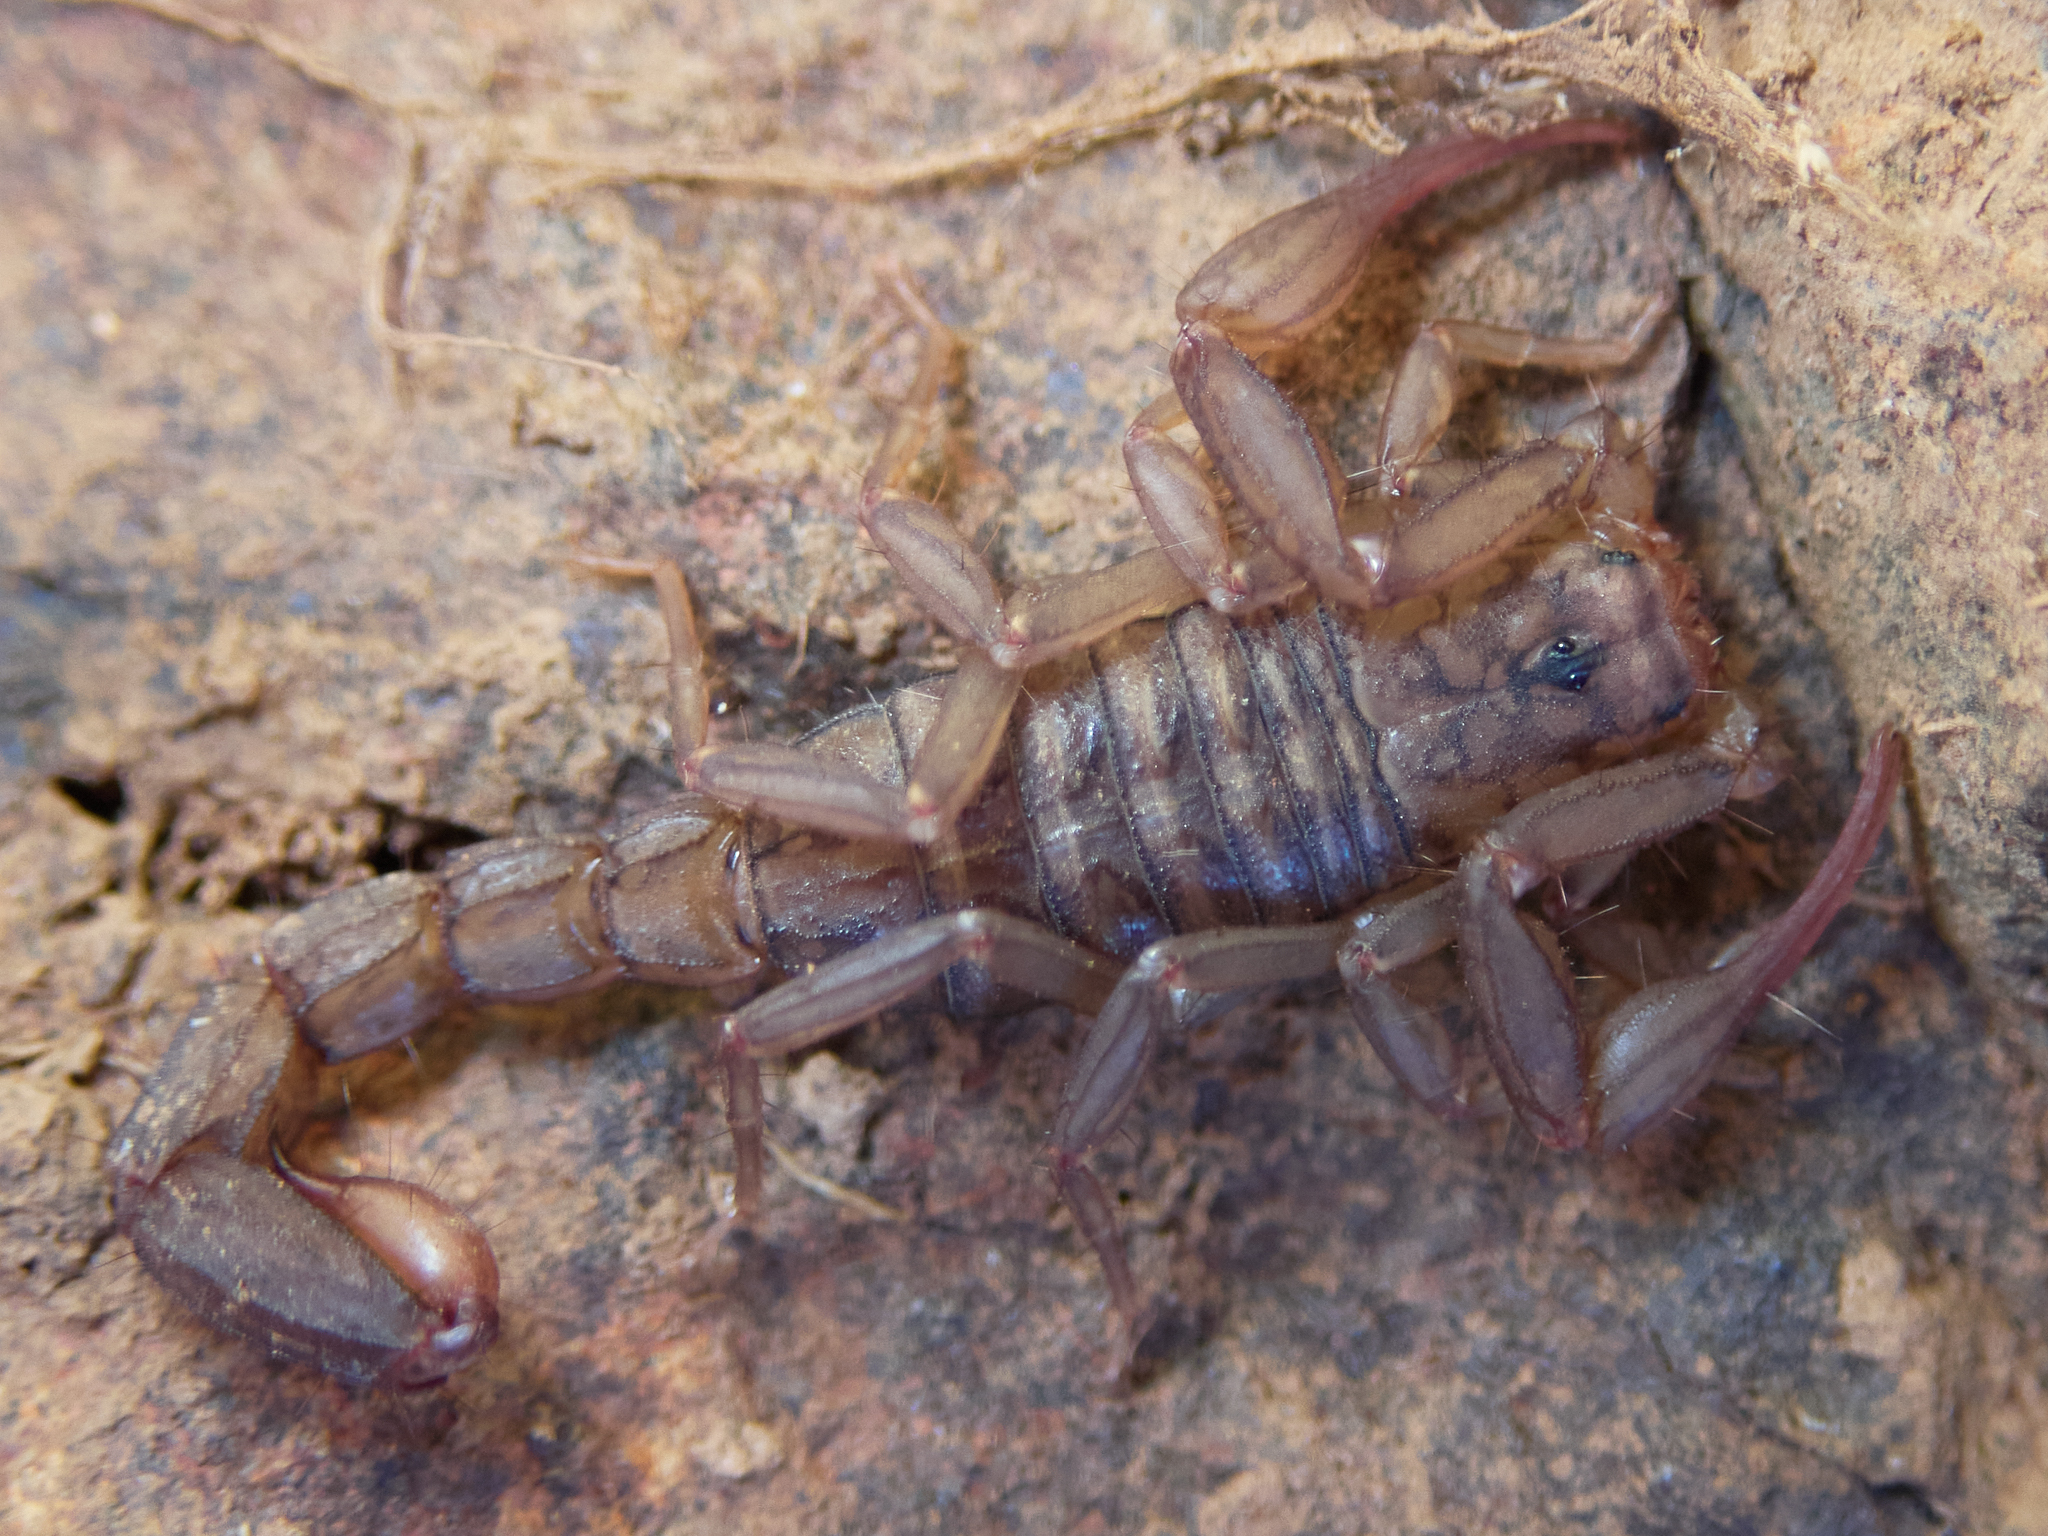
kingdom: Animalia
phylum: Arthropoda
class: Arachnida
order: Scorpiones
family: Vaejovidae
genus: Serradigitus
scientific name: Serradigitus gertschi
